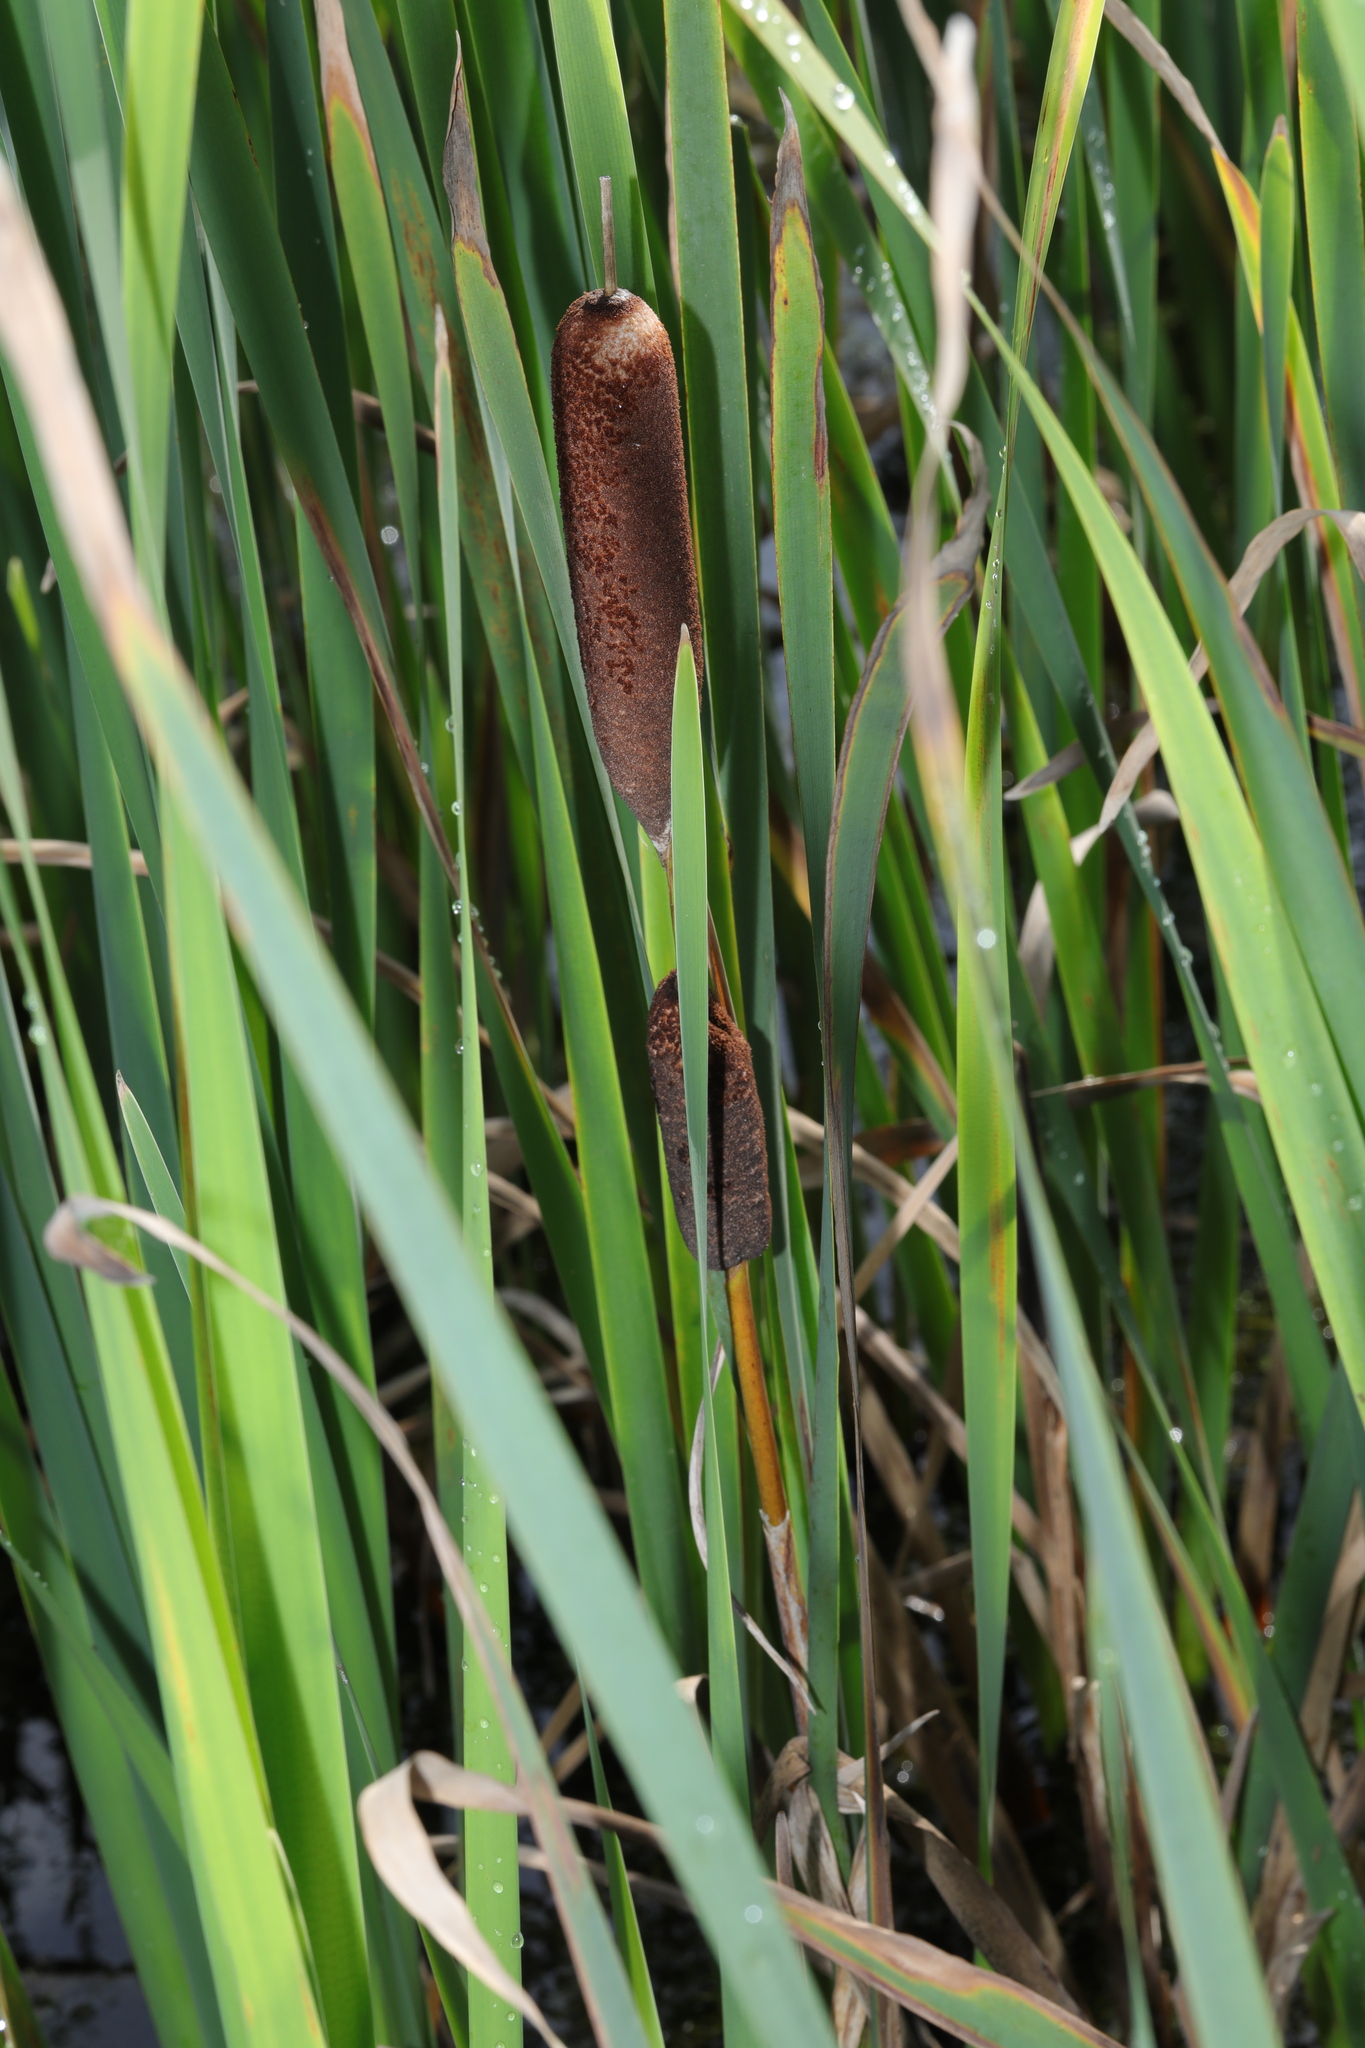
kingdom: Plantae
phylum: Tracheophyta
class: Liliopsida
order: Poales
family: Typhaceae
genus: Typha
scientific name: Typha latifolia
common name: Broadleaf cattail
